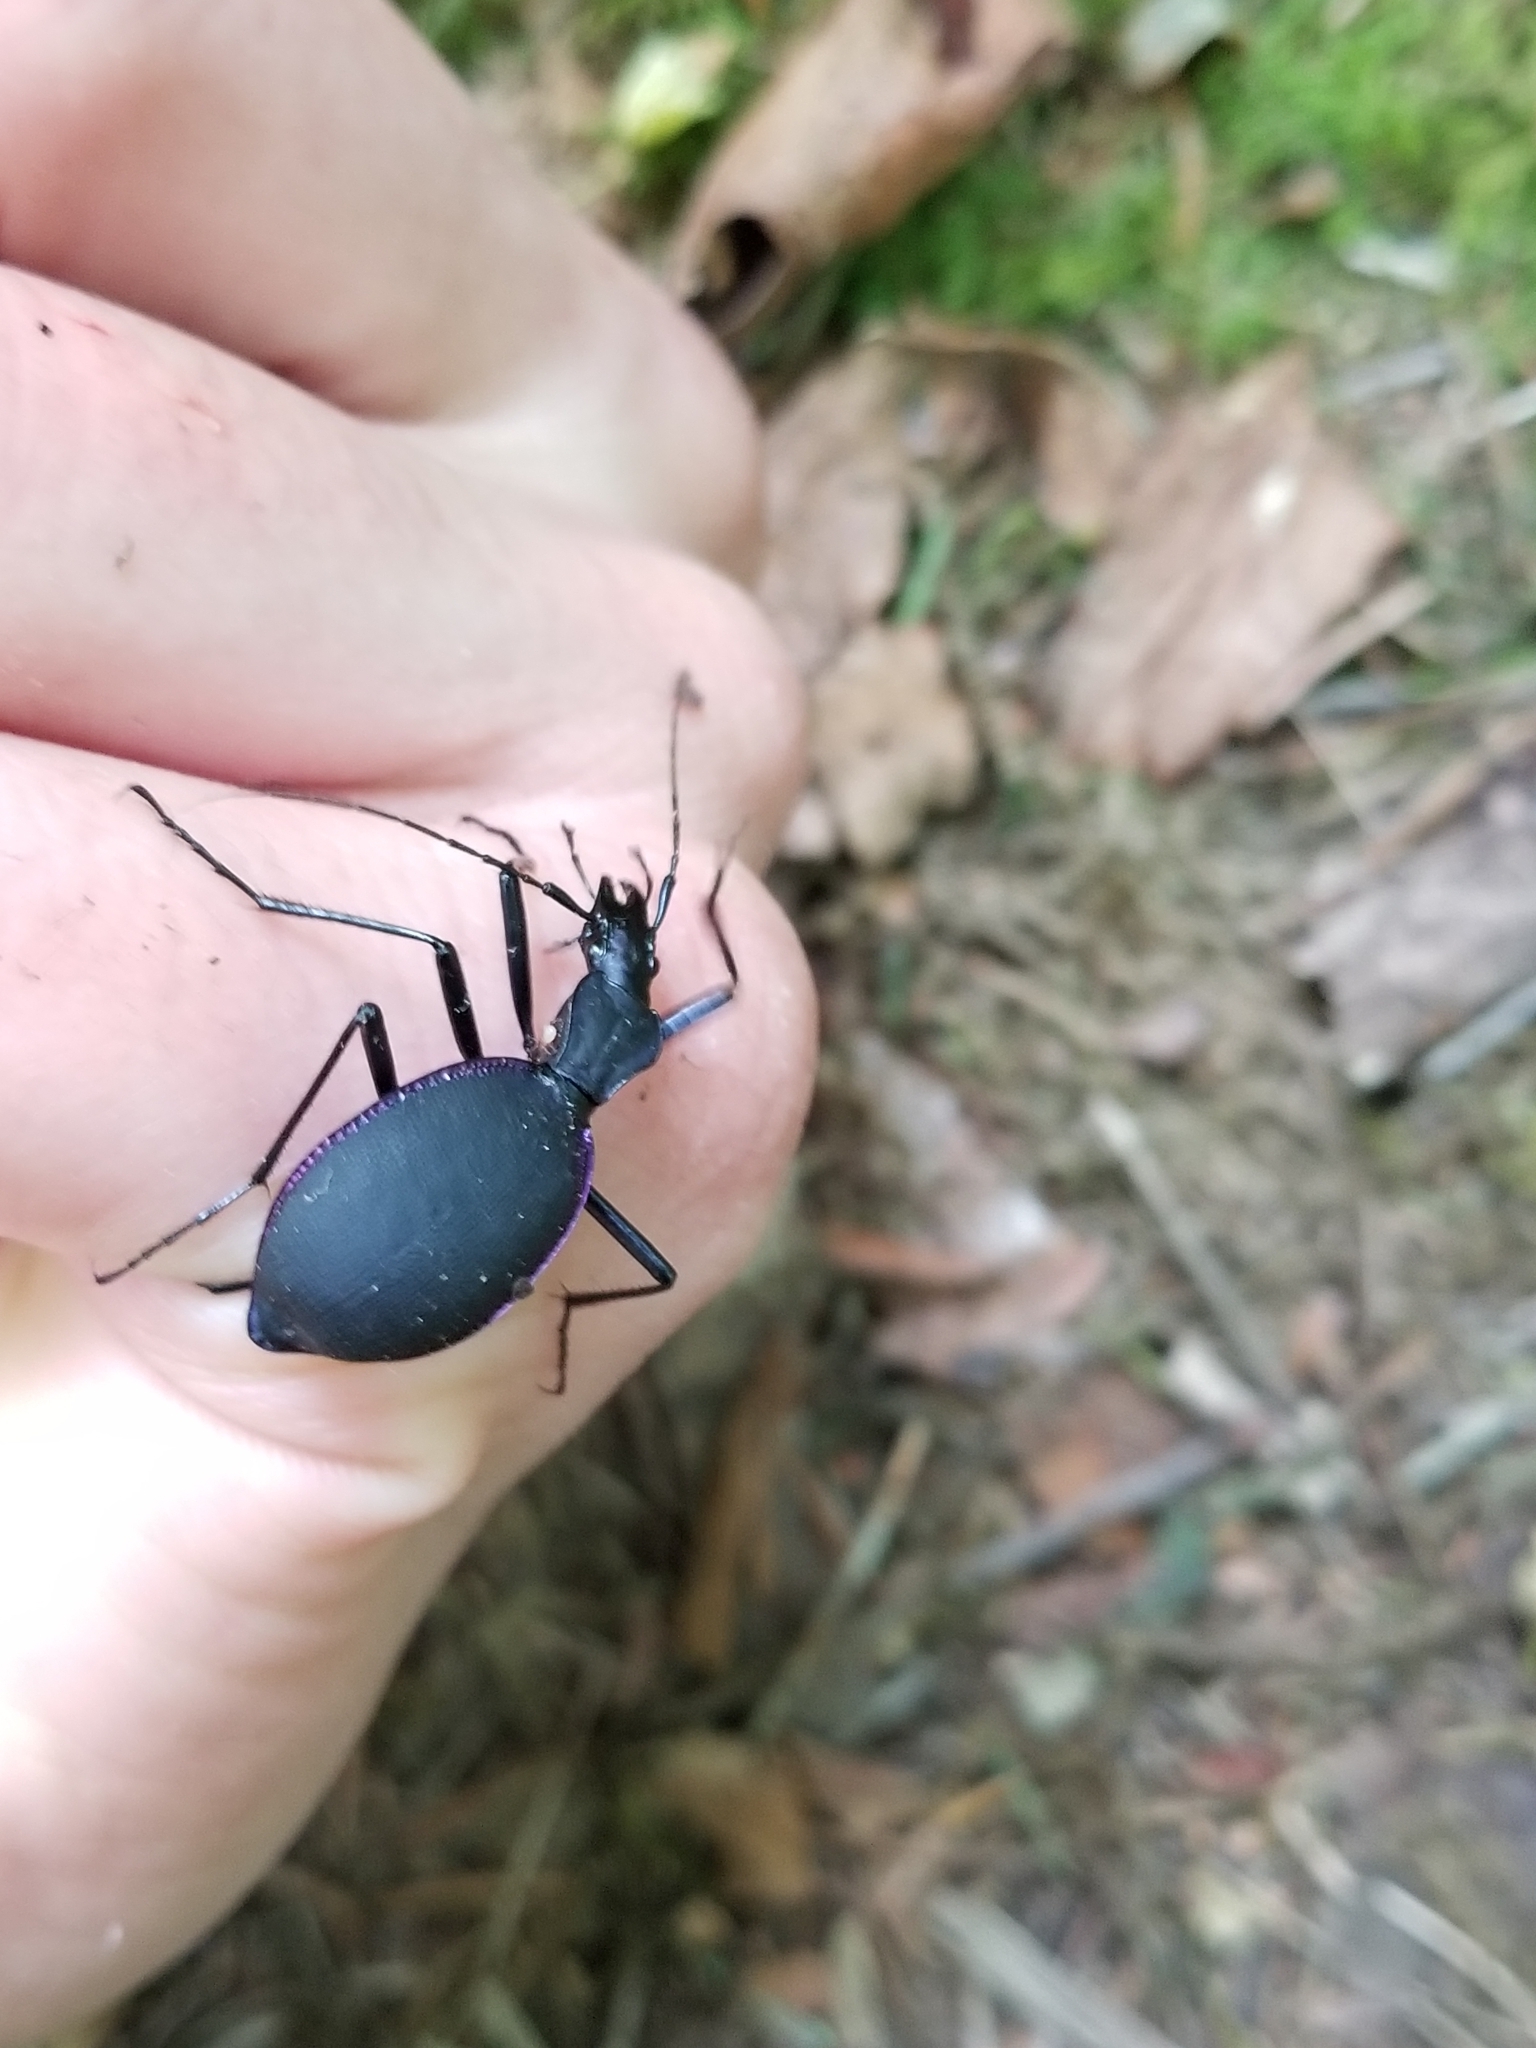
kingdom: Animalia
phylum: Arthropoda
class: Insecta
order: Coleoptera
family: Carabidae
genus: Scaphinotus
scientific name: Scaphinotus velutinus
